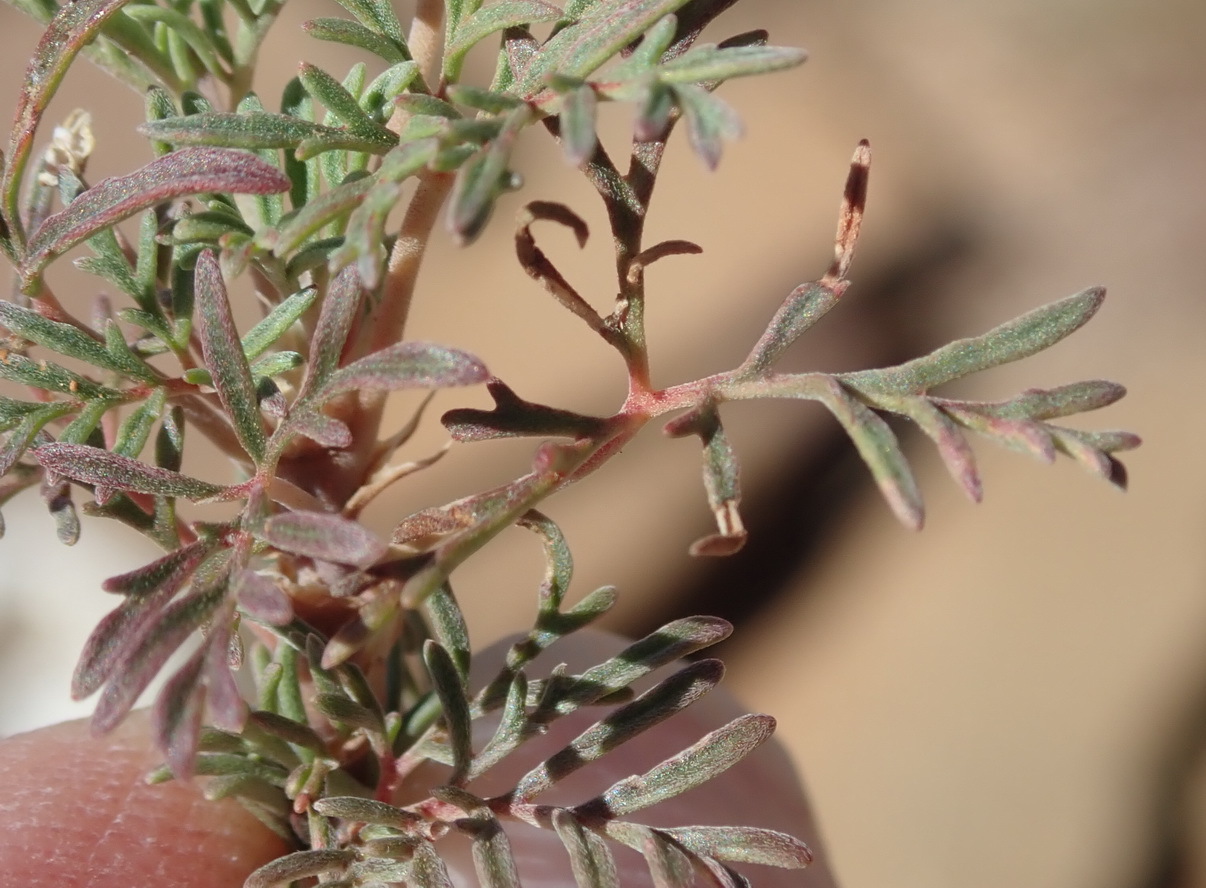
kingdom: Plantae
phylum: Tracheophyta
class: Magnoliopsida
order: Geraniales
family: Geraniaceae
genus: Pelargonium
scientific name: Pelargonium nanum
